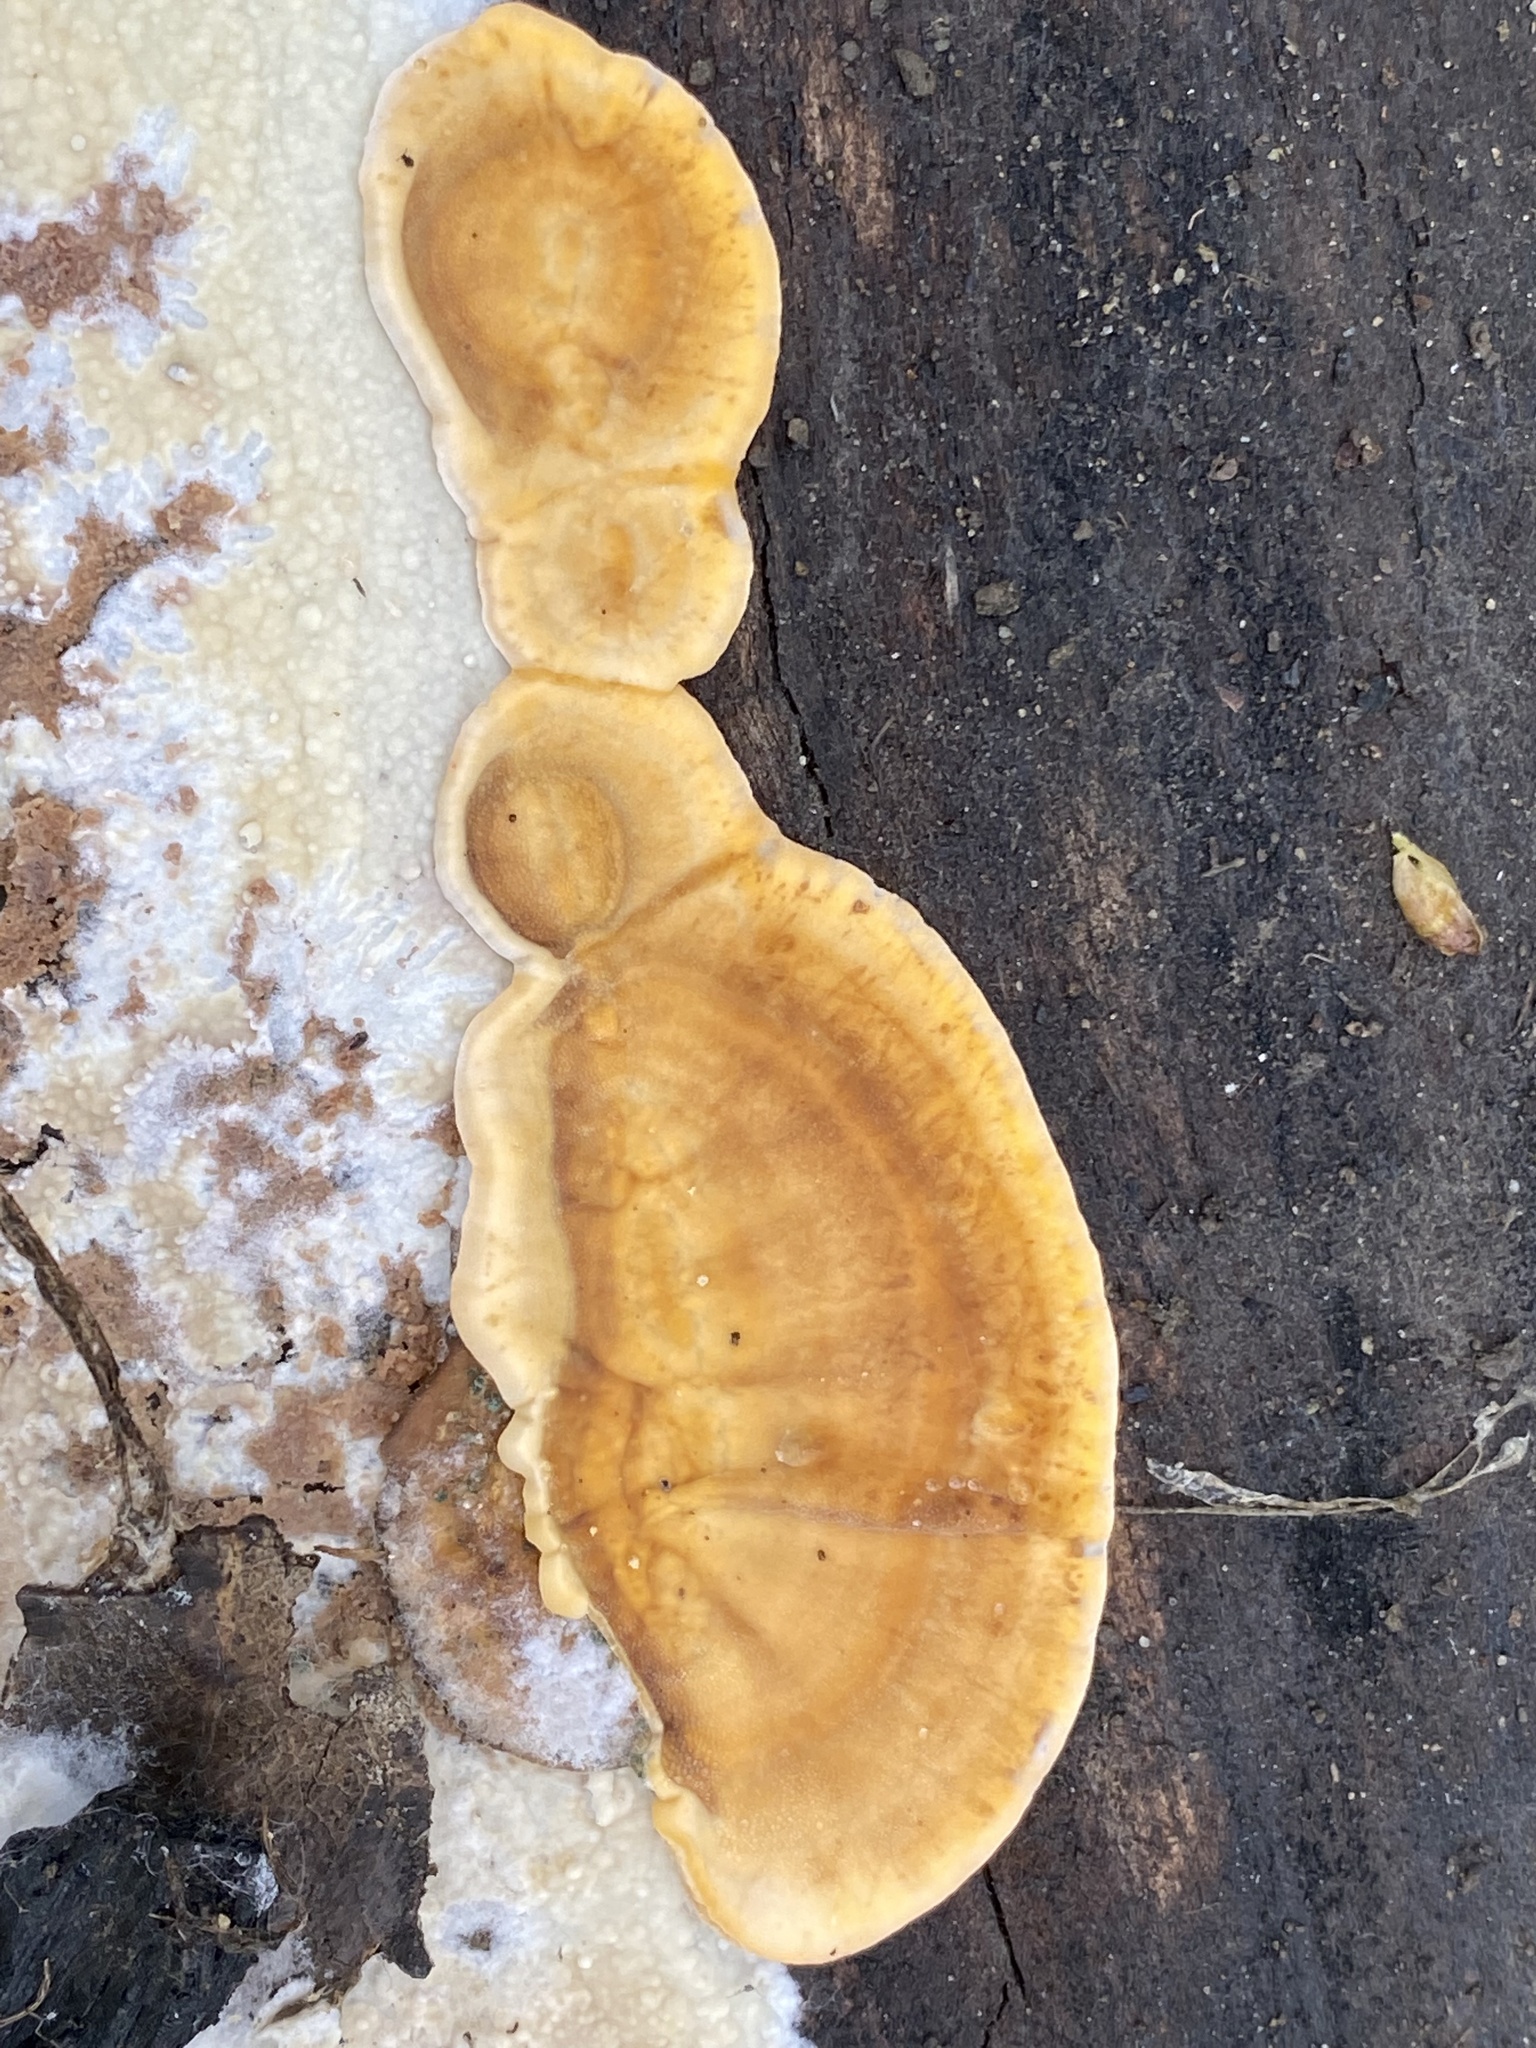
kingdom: Fungi
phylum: Basidiomycota
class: Agaricomycetes
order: Russulales
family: Stereaceae
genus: Stereum
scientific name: Stereum hirsutum
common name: Hairy curtain crust
